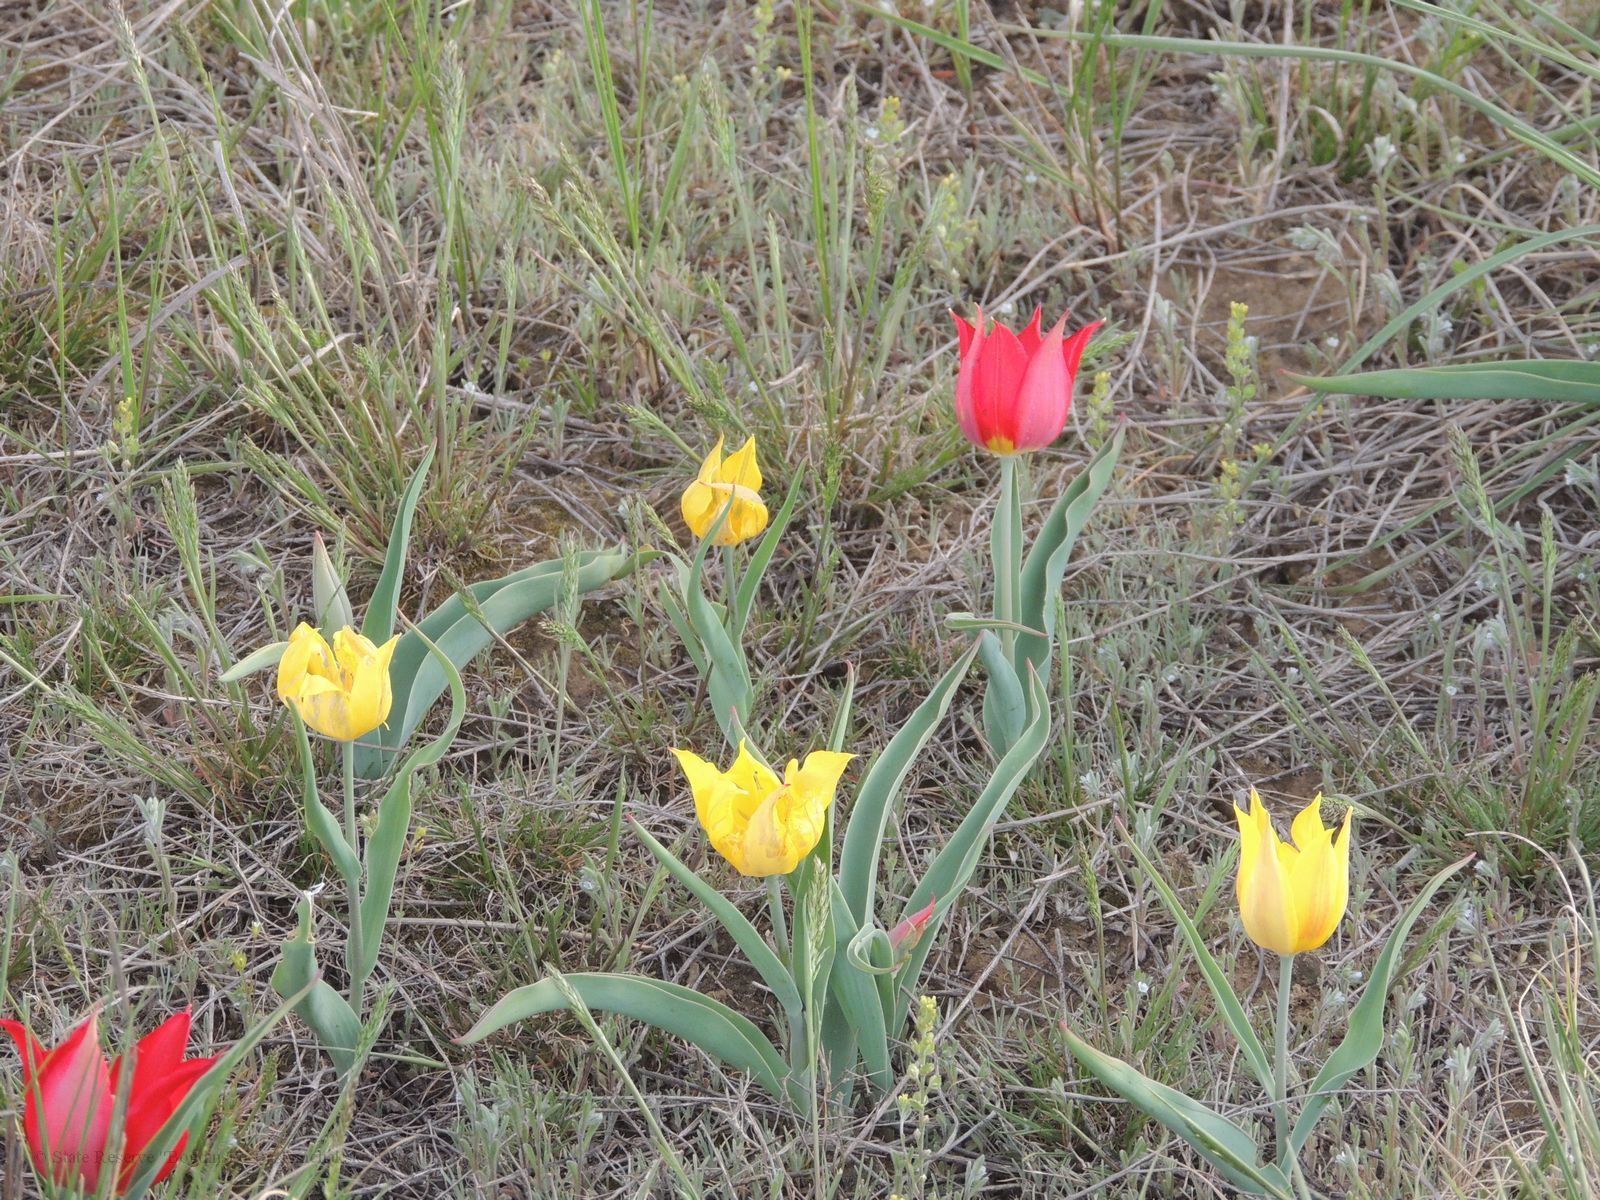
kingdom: Plantae
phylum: Tracheophyta
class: Liliopsida
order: Liliales
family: Liliaceae
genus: Tulipa
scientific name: Tulipa suaveolens
